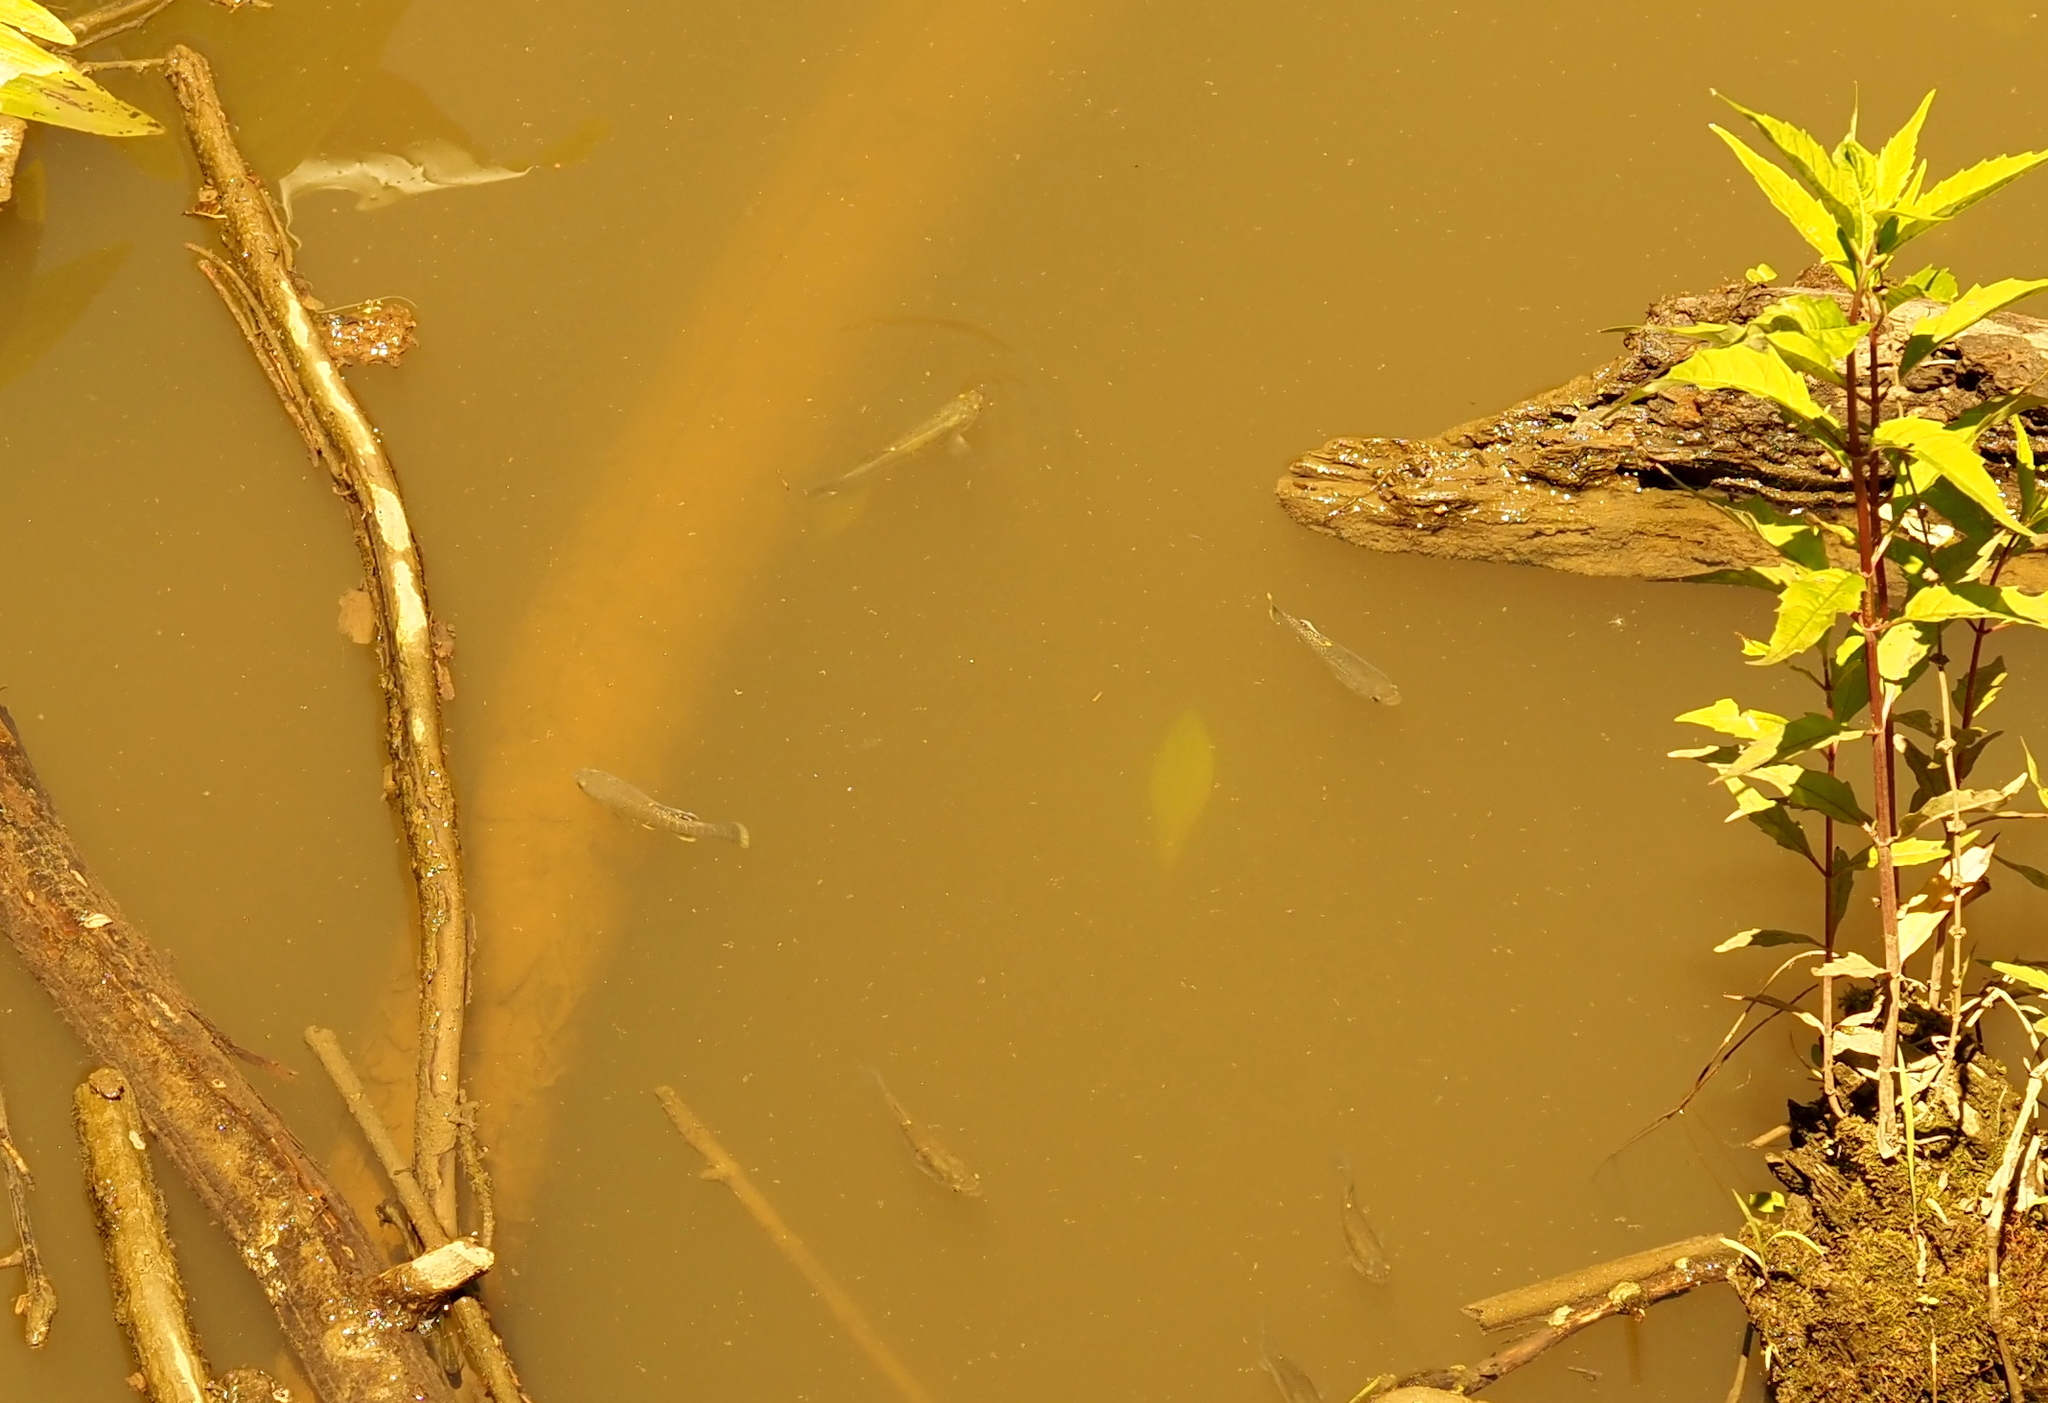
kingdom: Animalia
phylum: Chordata
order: Cyprinodontiformes
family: Fundulidae
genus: Fundulus
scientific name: Fundulus heteroclitus
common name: Mummichog
